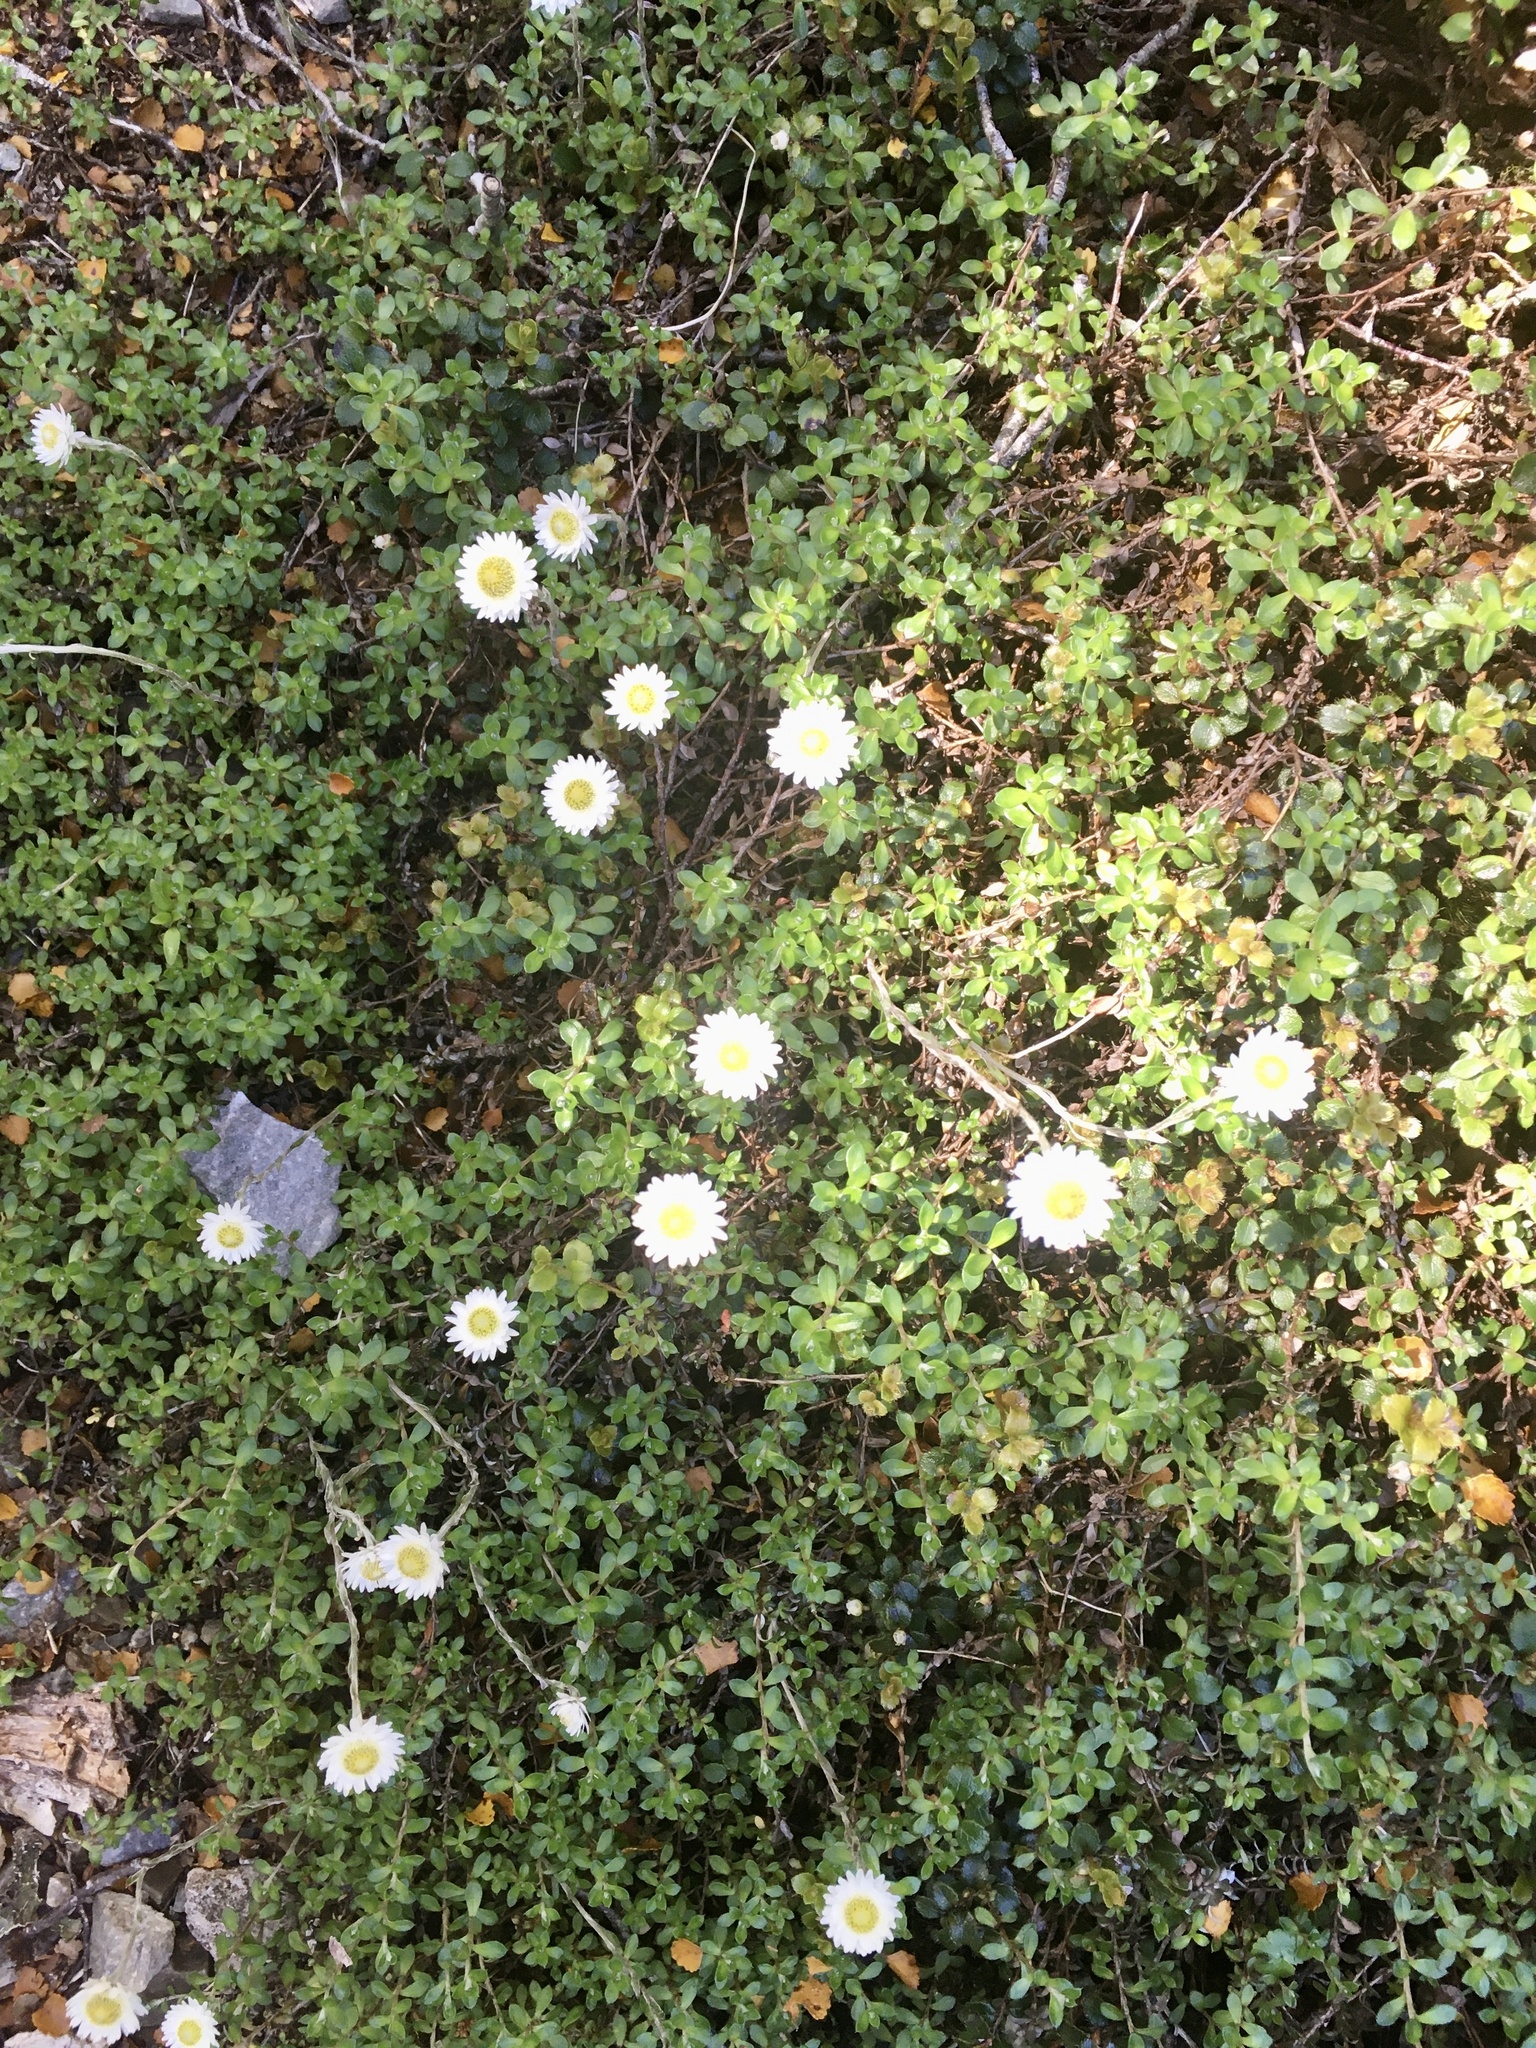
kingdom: Plantae
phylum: Tracheophyta
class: Magnoliopsida
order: Asterales
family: Asteraceae
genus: Anaphalioides
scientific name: Anaphalioides bellidioides
